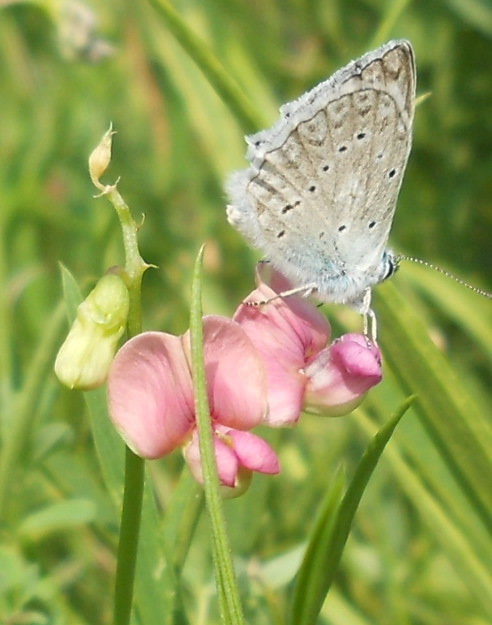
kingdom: Animalia
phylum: Arthropoda
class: Insecta
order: Lepidoptera
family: Lycaenidae
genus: Polyommatus
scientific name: Polyommatus daphnis
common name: Meleager's blue
